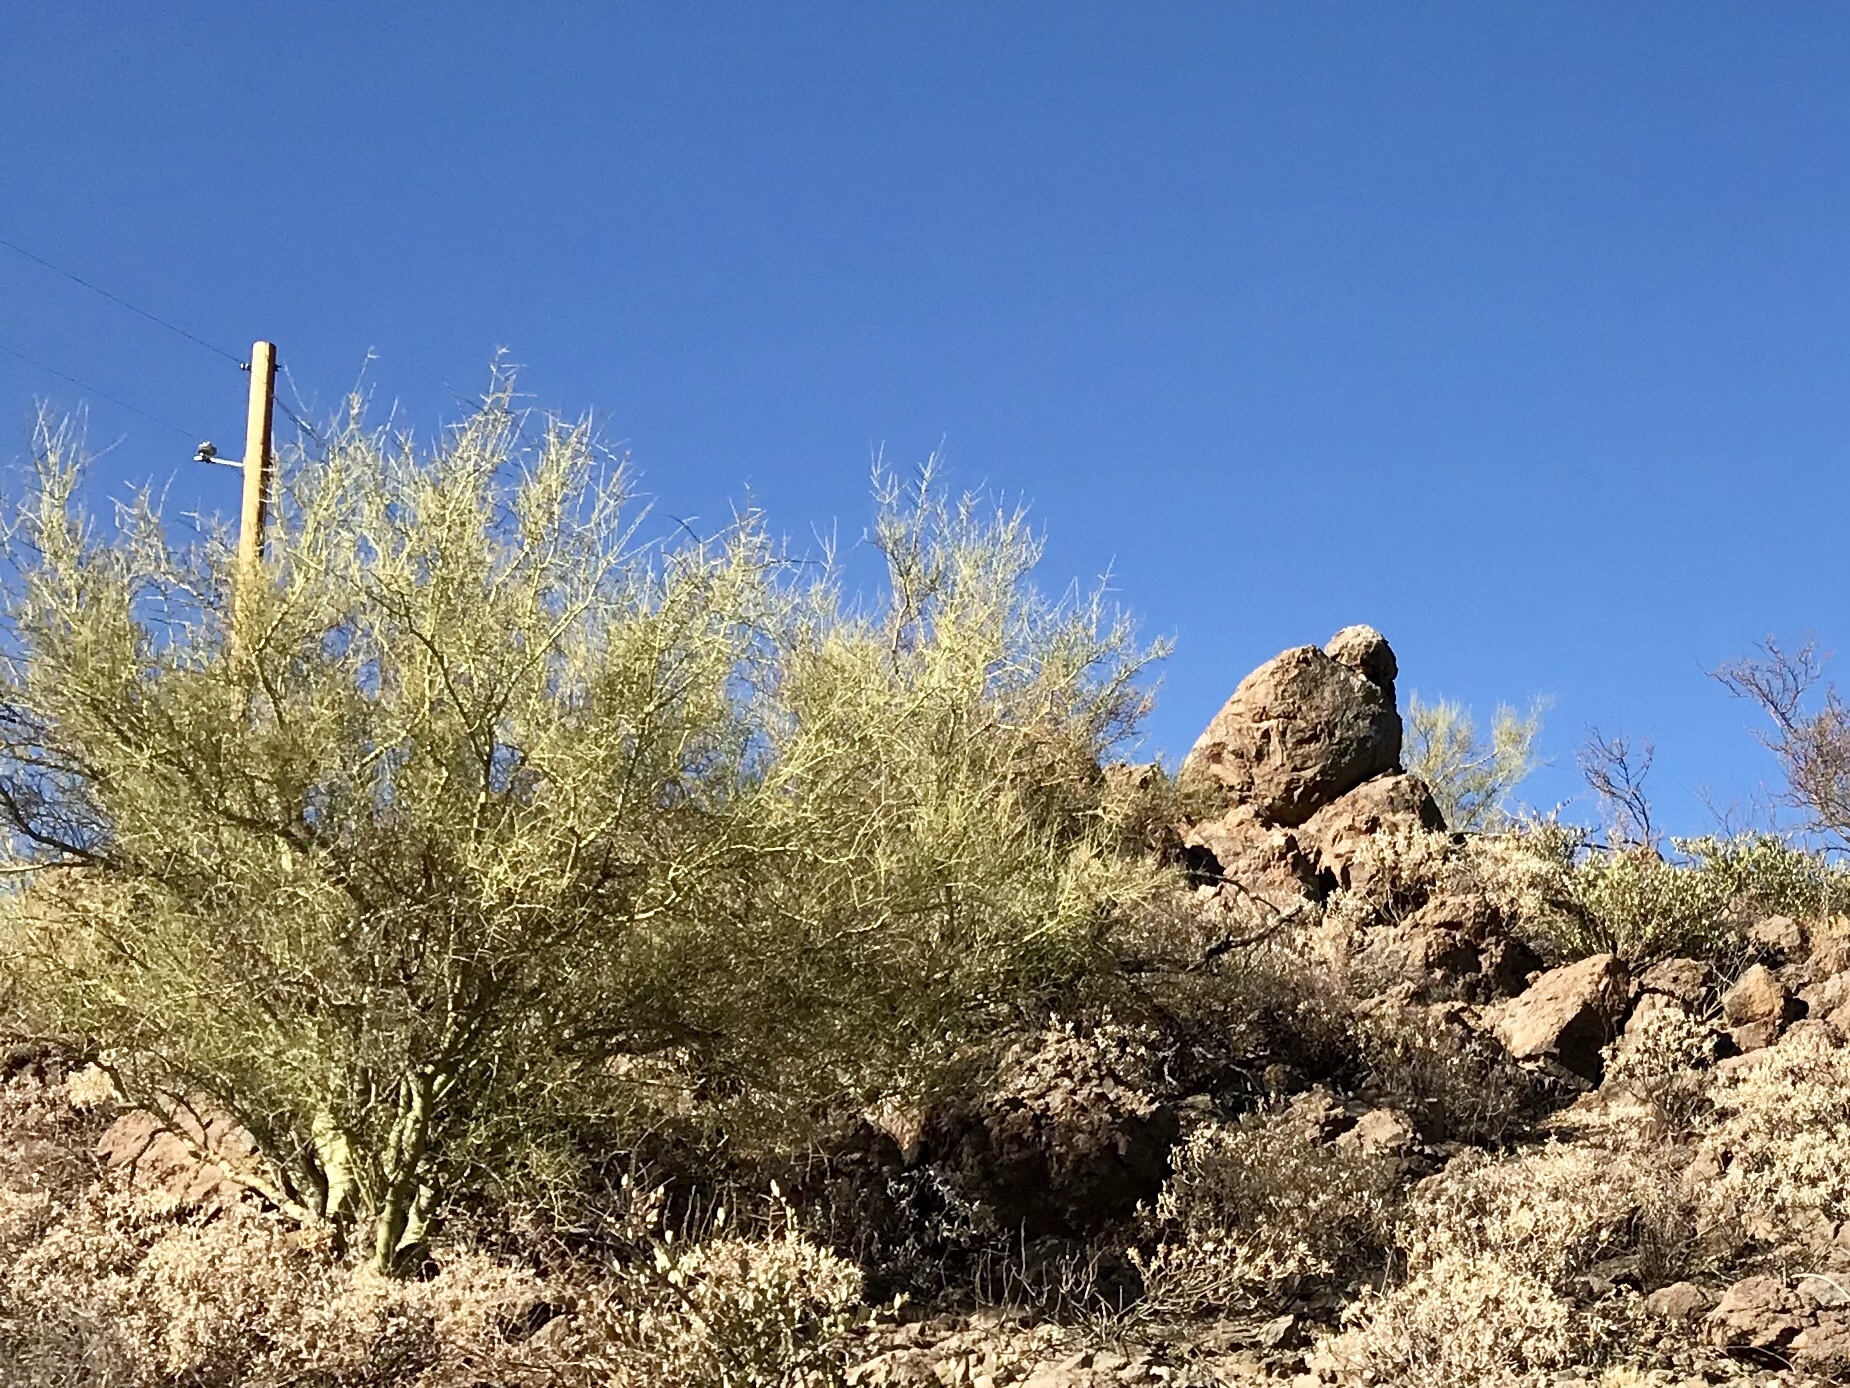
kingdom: Plantae
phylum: Tracheophyta
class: Magnoliopsida
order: Fabales
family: Fabaceae
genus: Parkinsonia
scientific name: Parkinsonia microphylla
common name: Yellow paloverde
